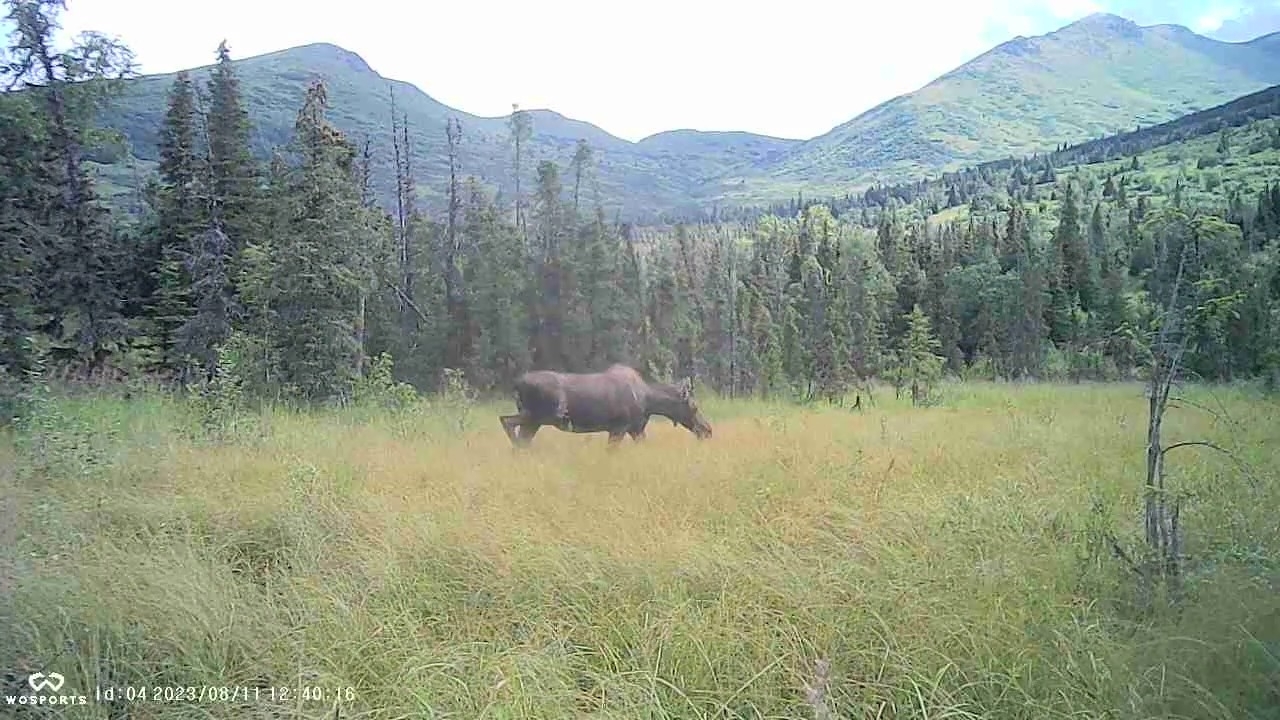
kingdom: Animalia
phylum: Chordata
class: Mammalia
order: Artiodactyla
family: Cervidae
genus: Alces
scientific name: Alces alces
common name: Moose
